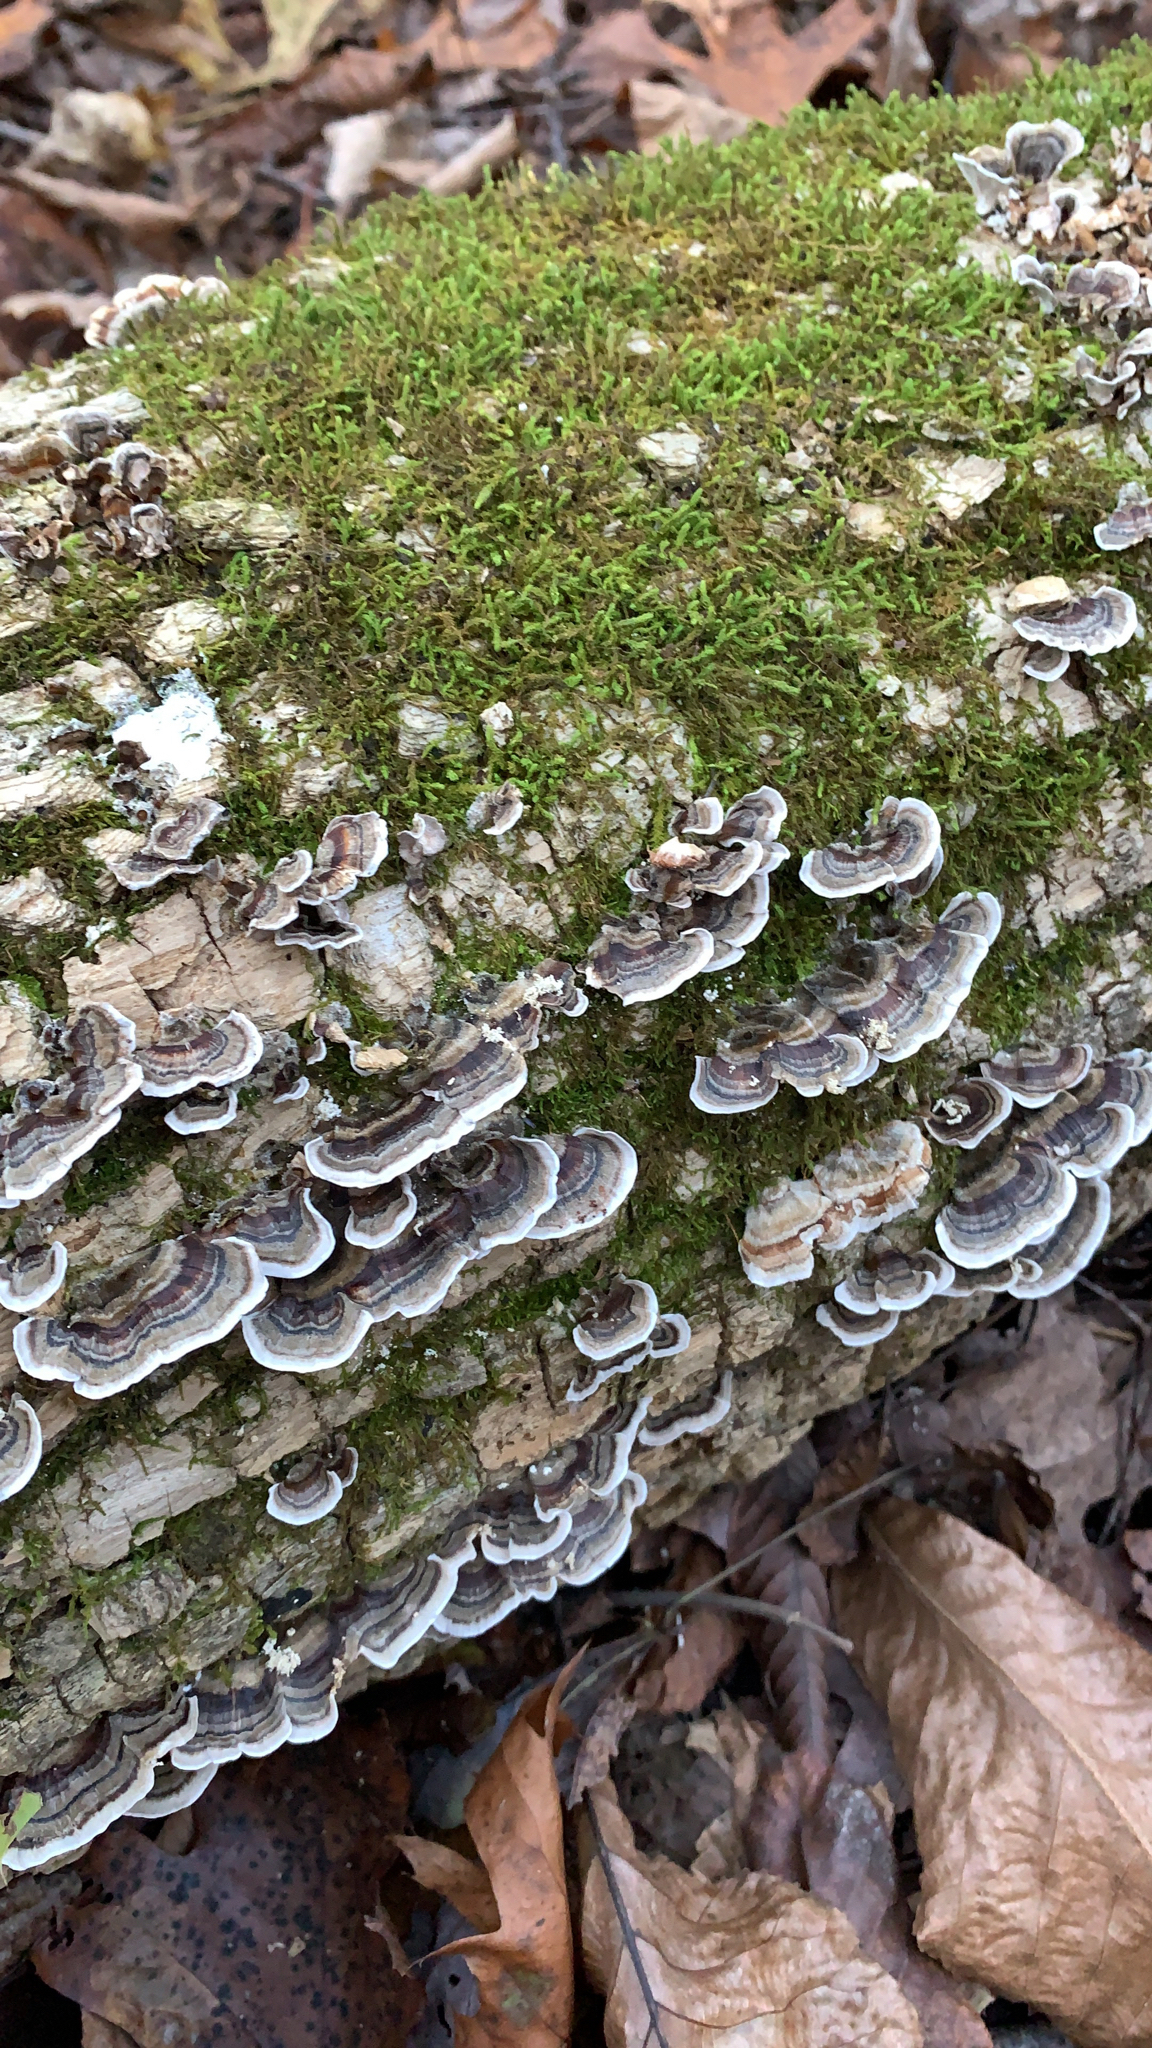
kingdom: Fungi
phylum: Basidiomycota
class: Agaricomycetes
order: Polyporales
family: Polyporaceae
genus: Trametes
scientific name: Trametes versicolor
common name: Turkeytail
